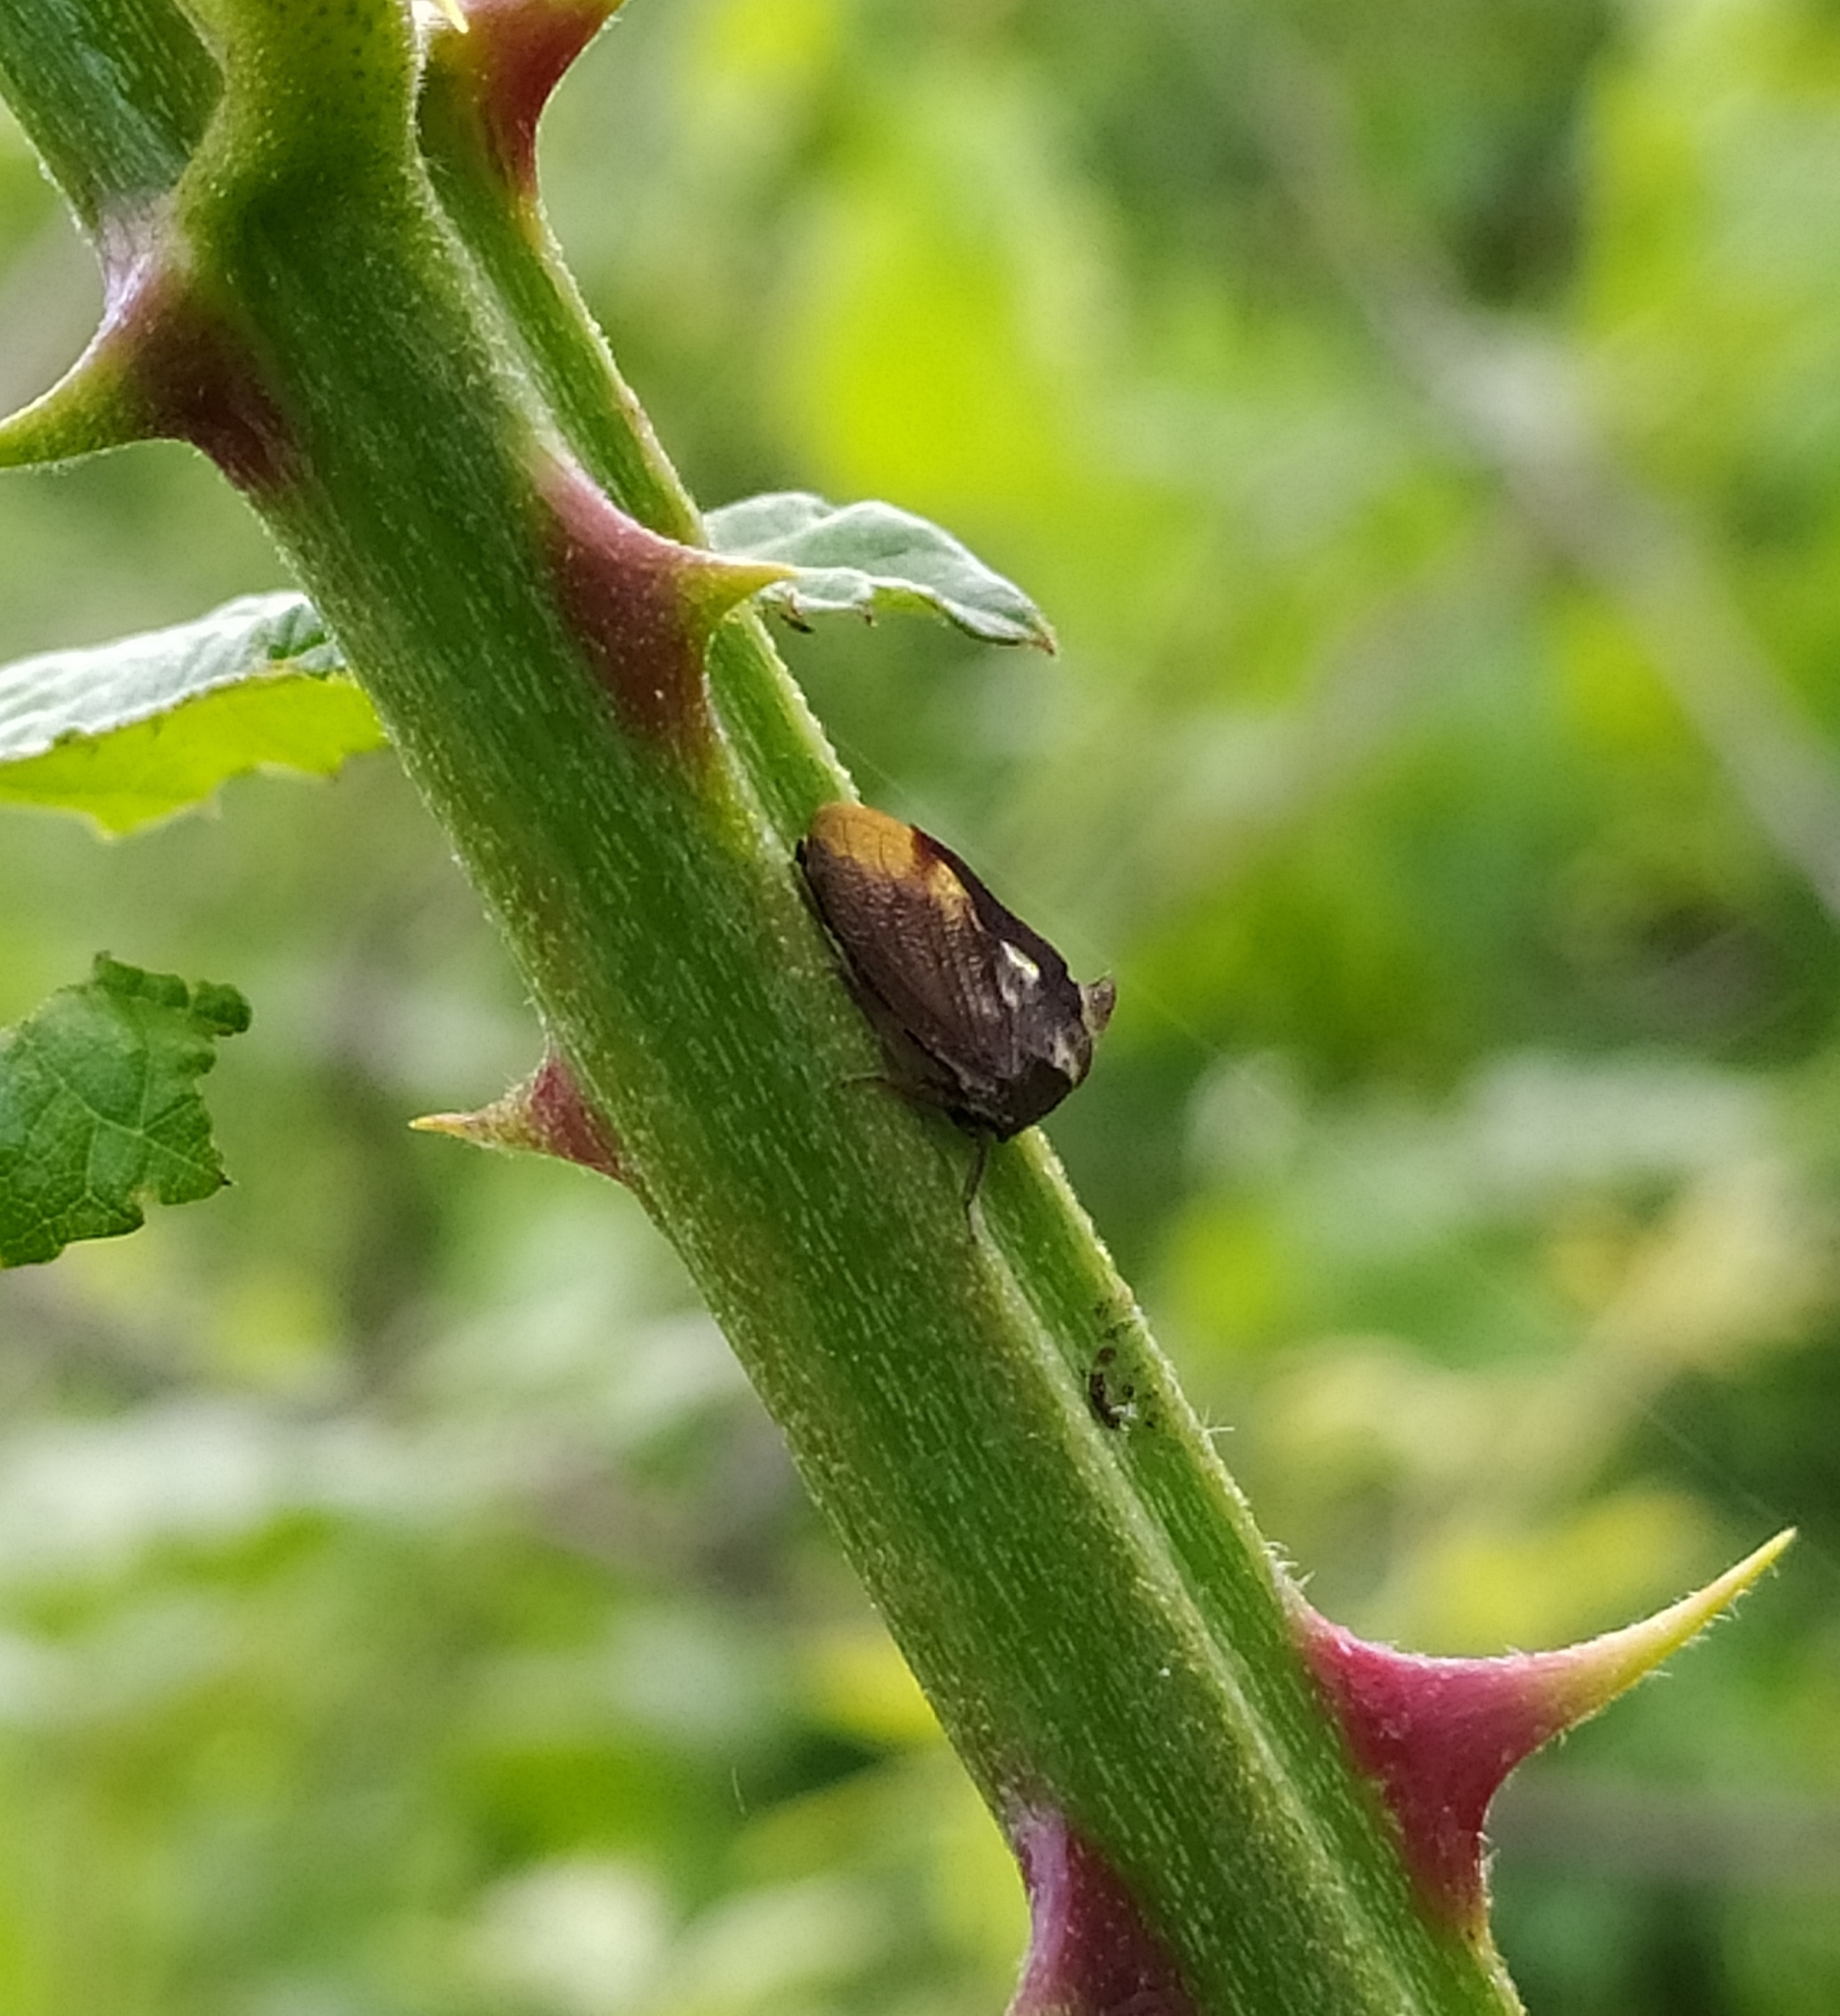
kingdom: Animalia
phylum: Arthropoda
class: Insecta
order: Hemiptera
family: Membracidae
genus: Centrotus
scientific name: Centrotus cornuta
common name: Treehopper
